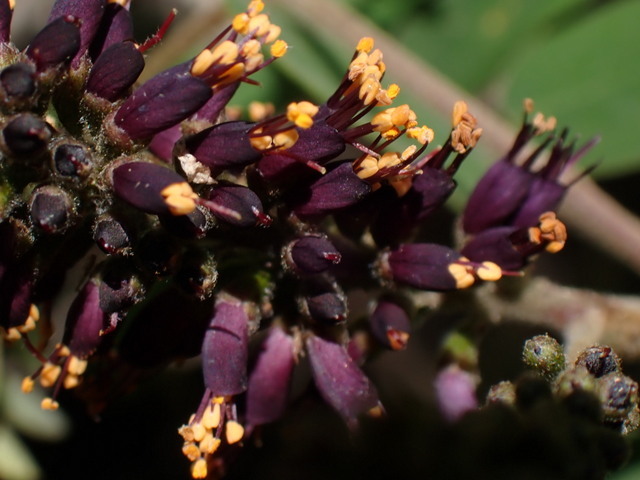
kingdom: Plantae
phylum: Tracheophyta
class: Magnoliopsida
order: Fabales
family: Fabaceae
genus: Amorpha
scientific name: Amorpha fruticosa
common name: False indigo
